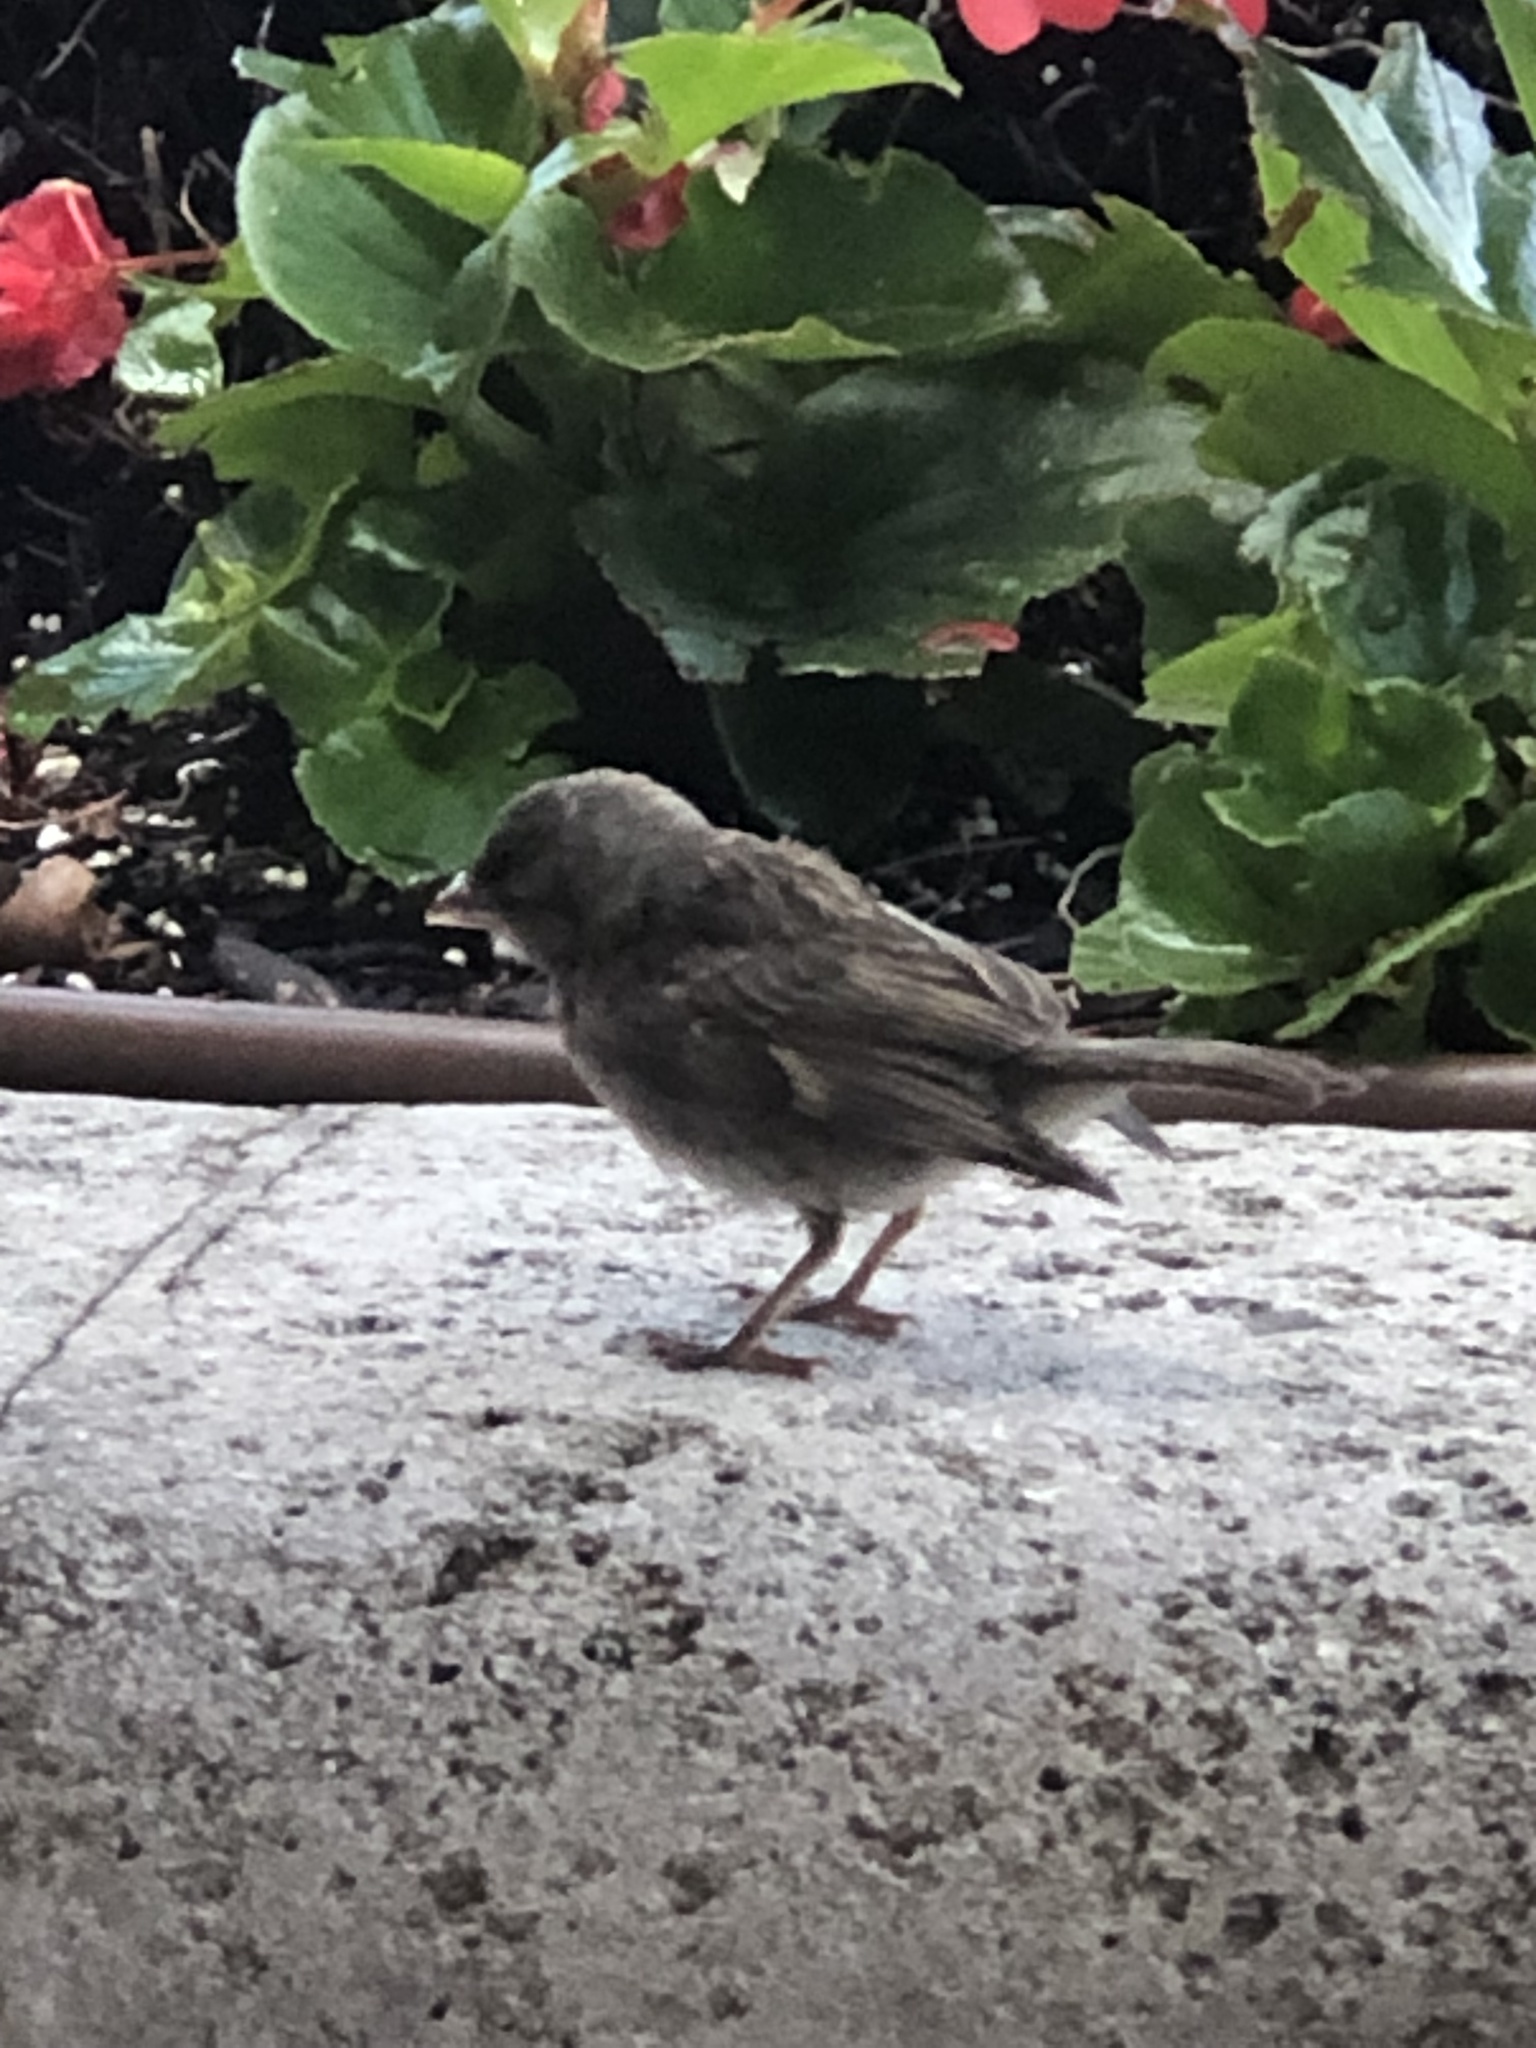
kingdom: Animalia
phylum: Chordata
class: Aves
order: Passeriformes
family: Passeridae
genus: Passer
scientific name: Passer domesticus
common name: House sparrow
